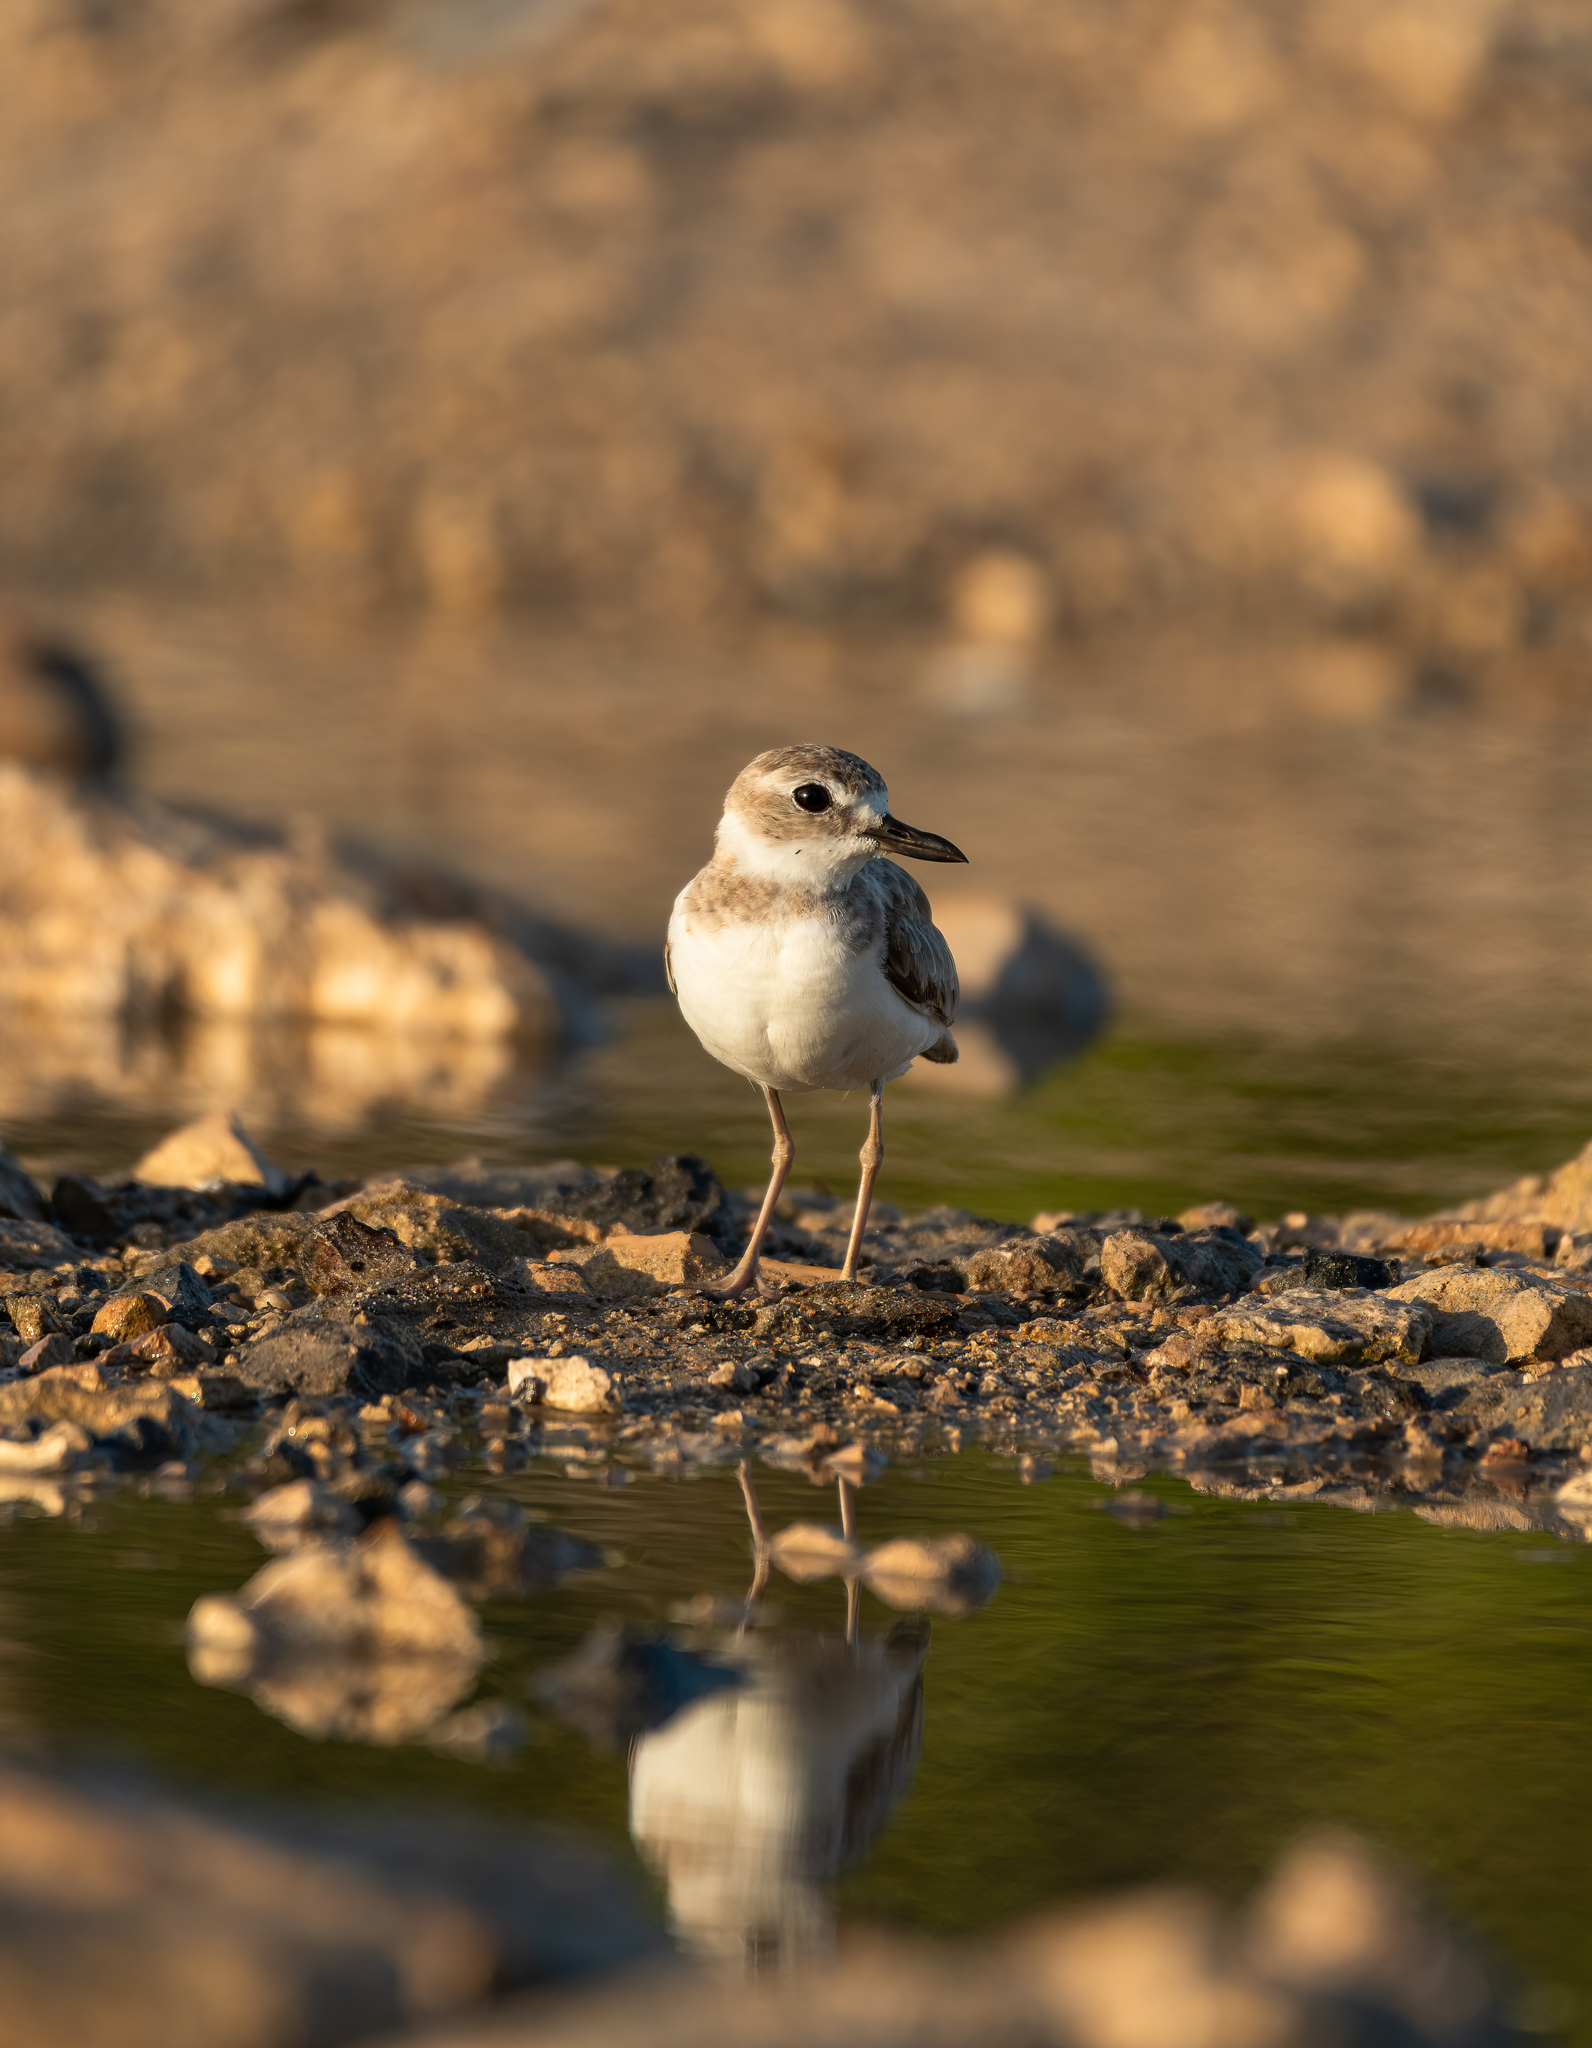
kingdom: Animalia
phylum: Chordata
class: Aves
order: Charadriiformes
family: Charadriidae
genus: Anarhynchus
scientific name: Anarhynchus
